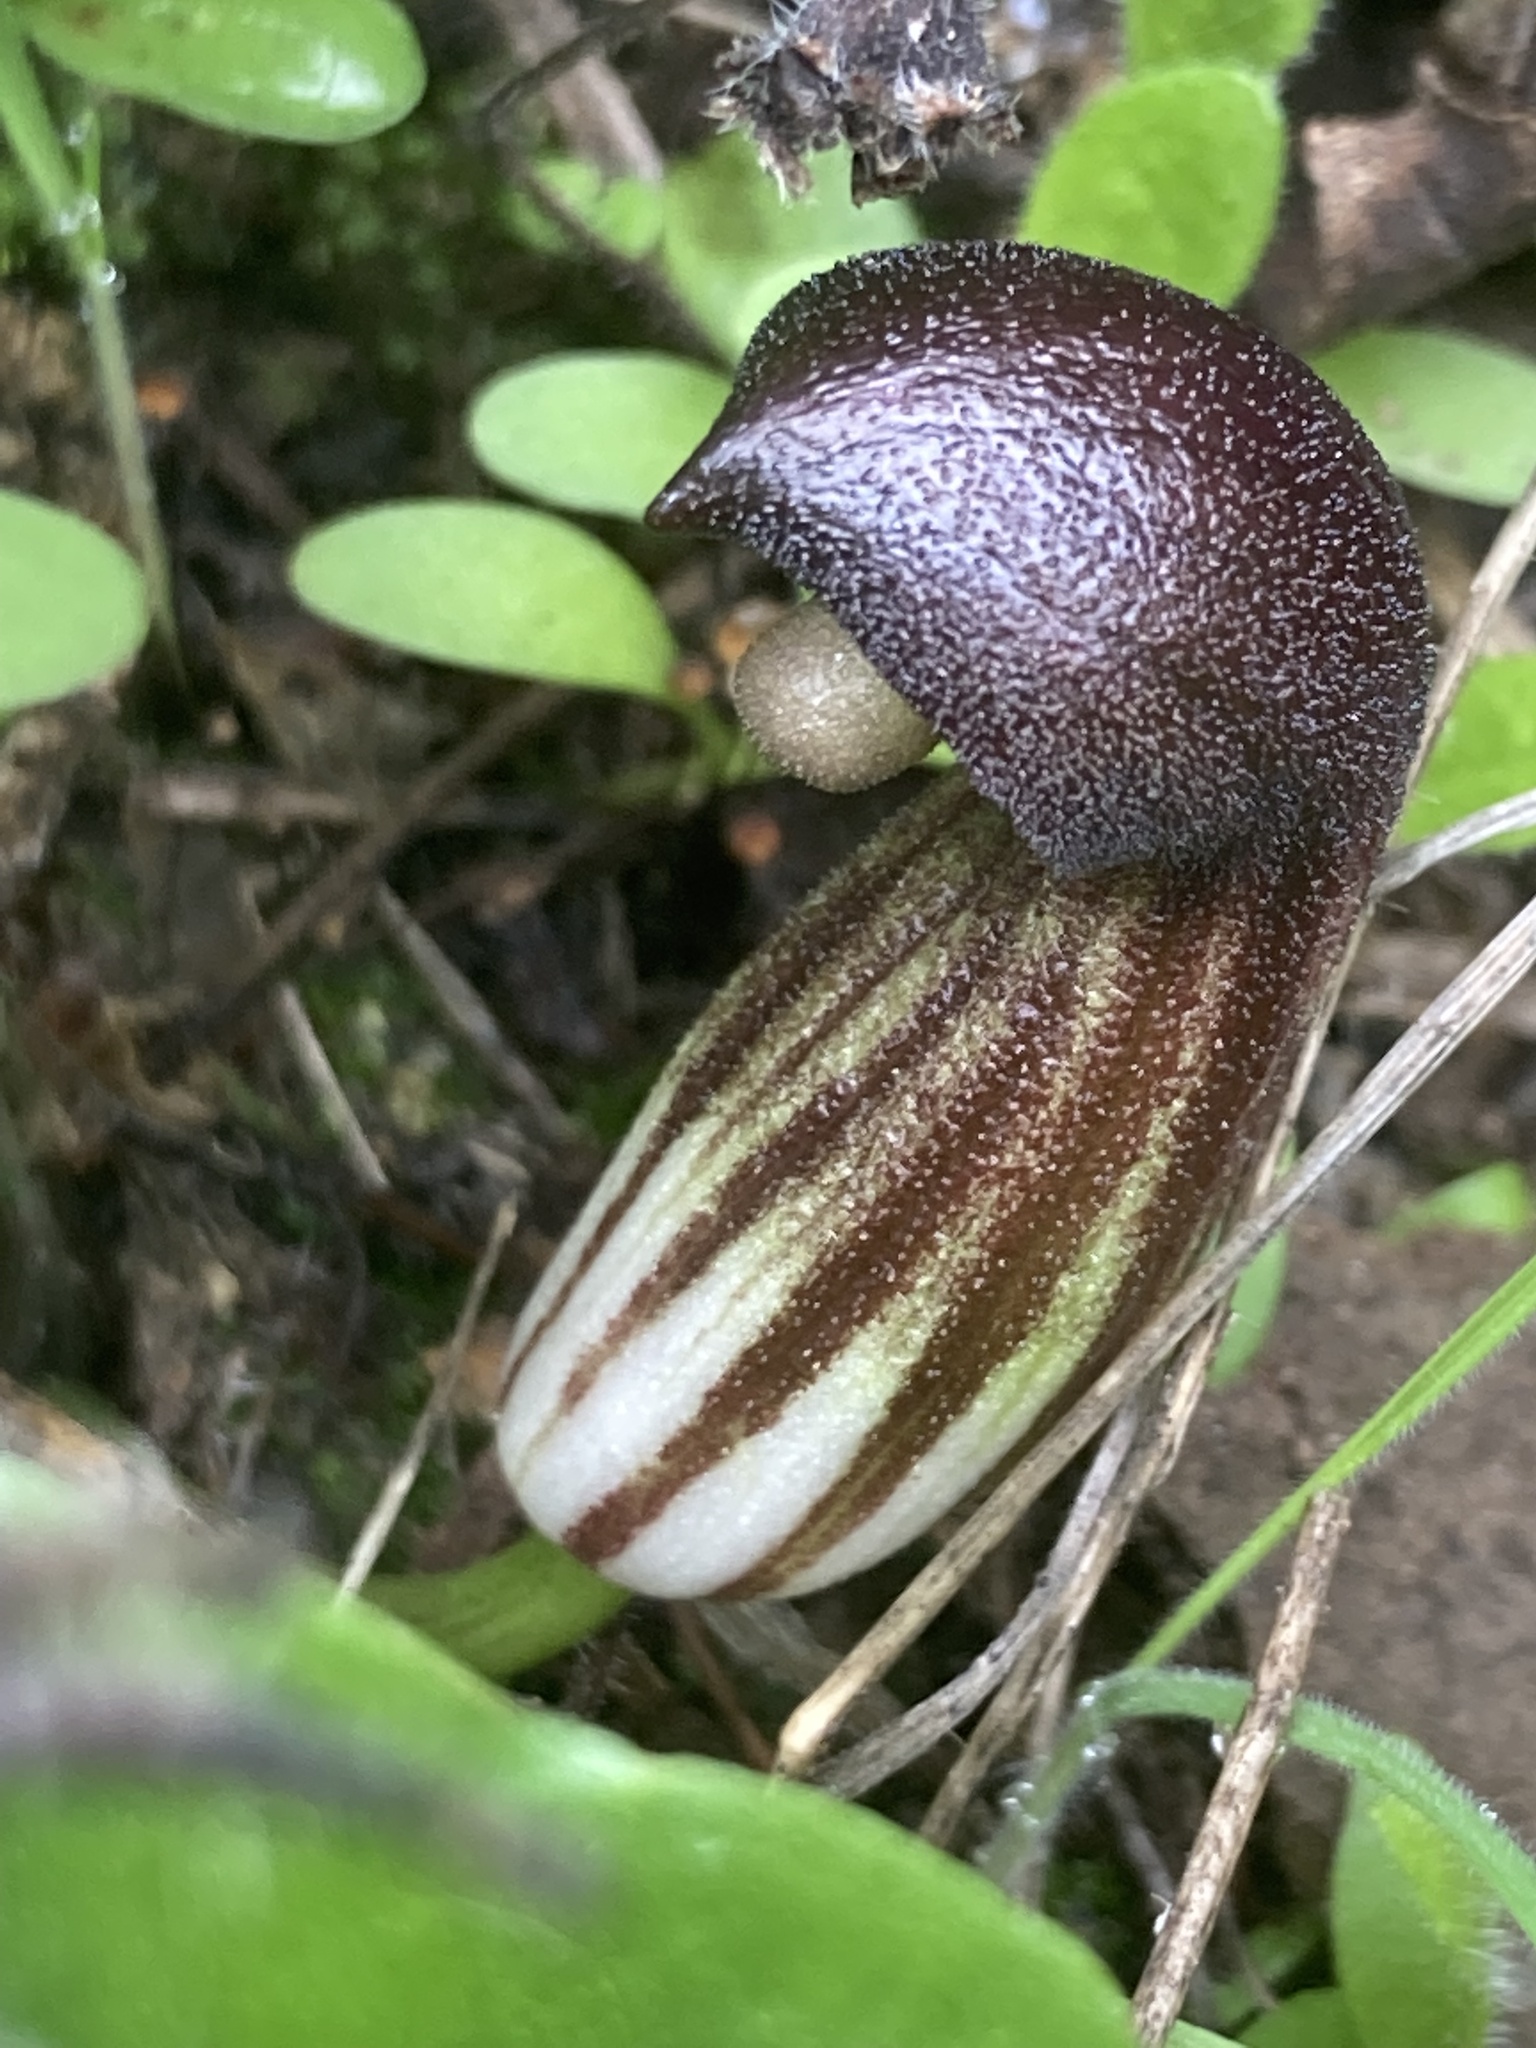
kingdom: Plantae
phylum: Tracheophyta
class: Liliopsida
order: Alismatales
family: Araceae
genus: Arisarum
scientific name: Arisarum simorrhinum
